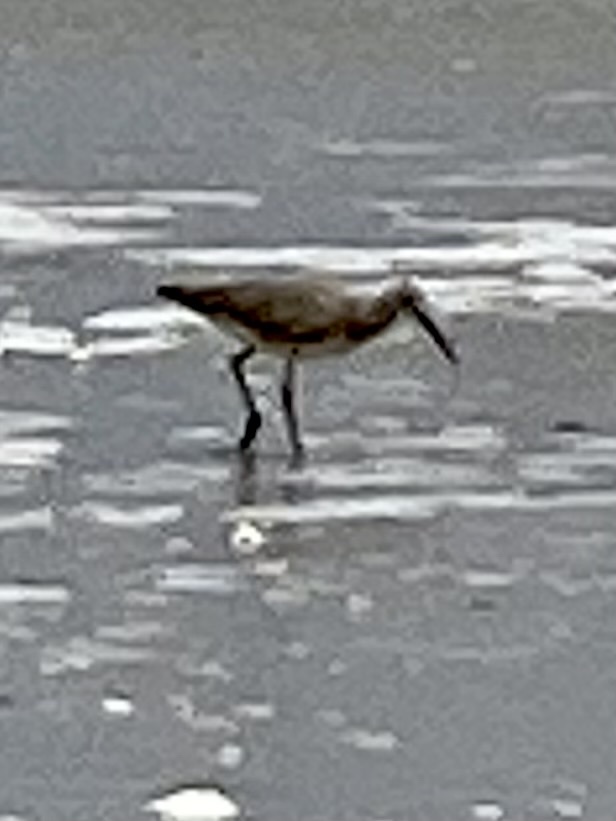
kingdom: Animalia
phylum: Chordata
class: Aves
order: Charadriiformes
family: Scolopacidae
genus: Tringa
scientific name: Tringa semipalmata
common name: Willet
